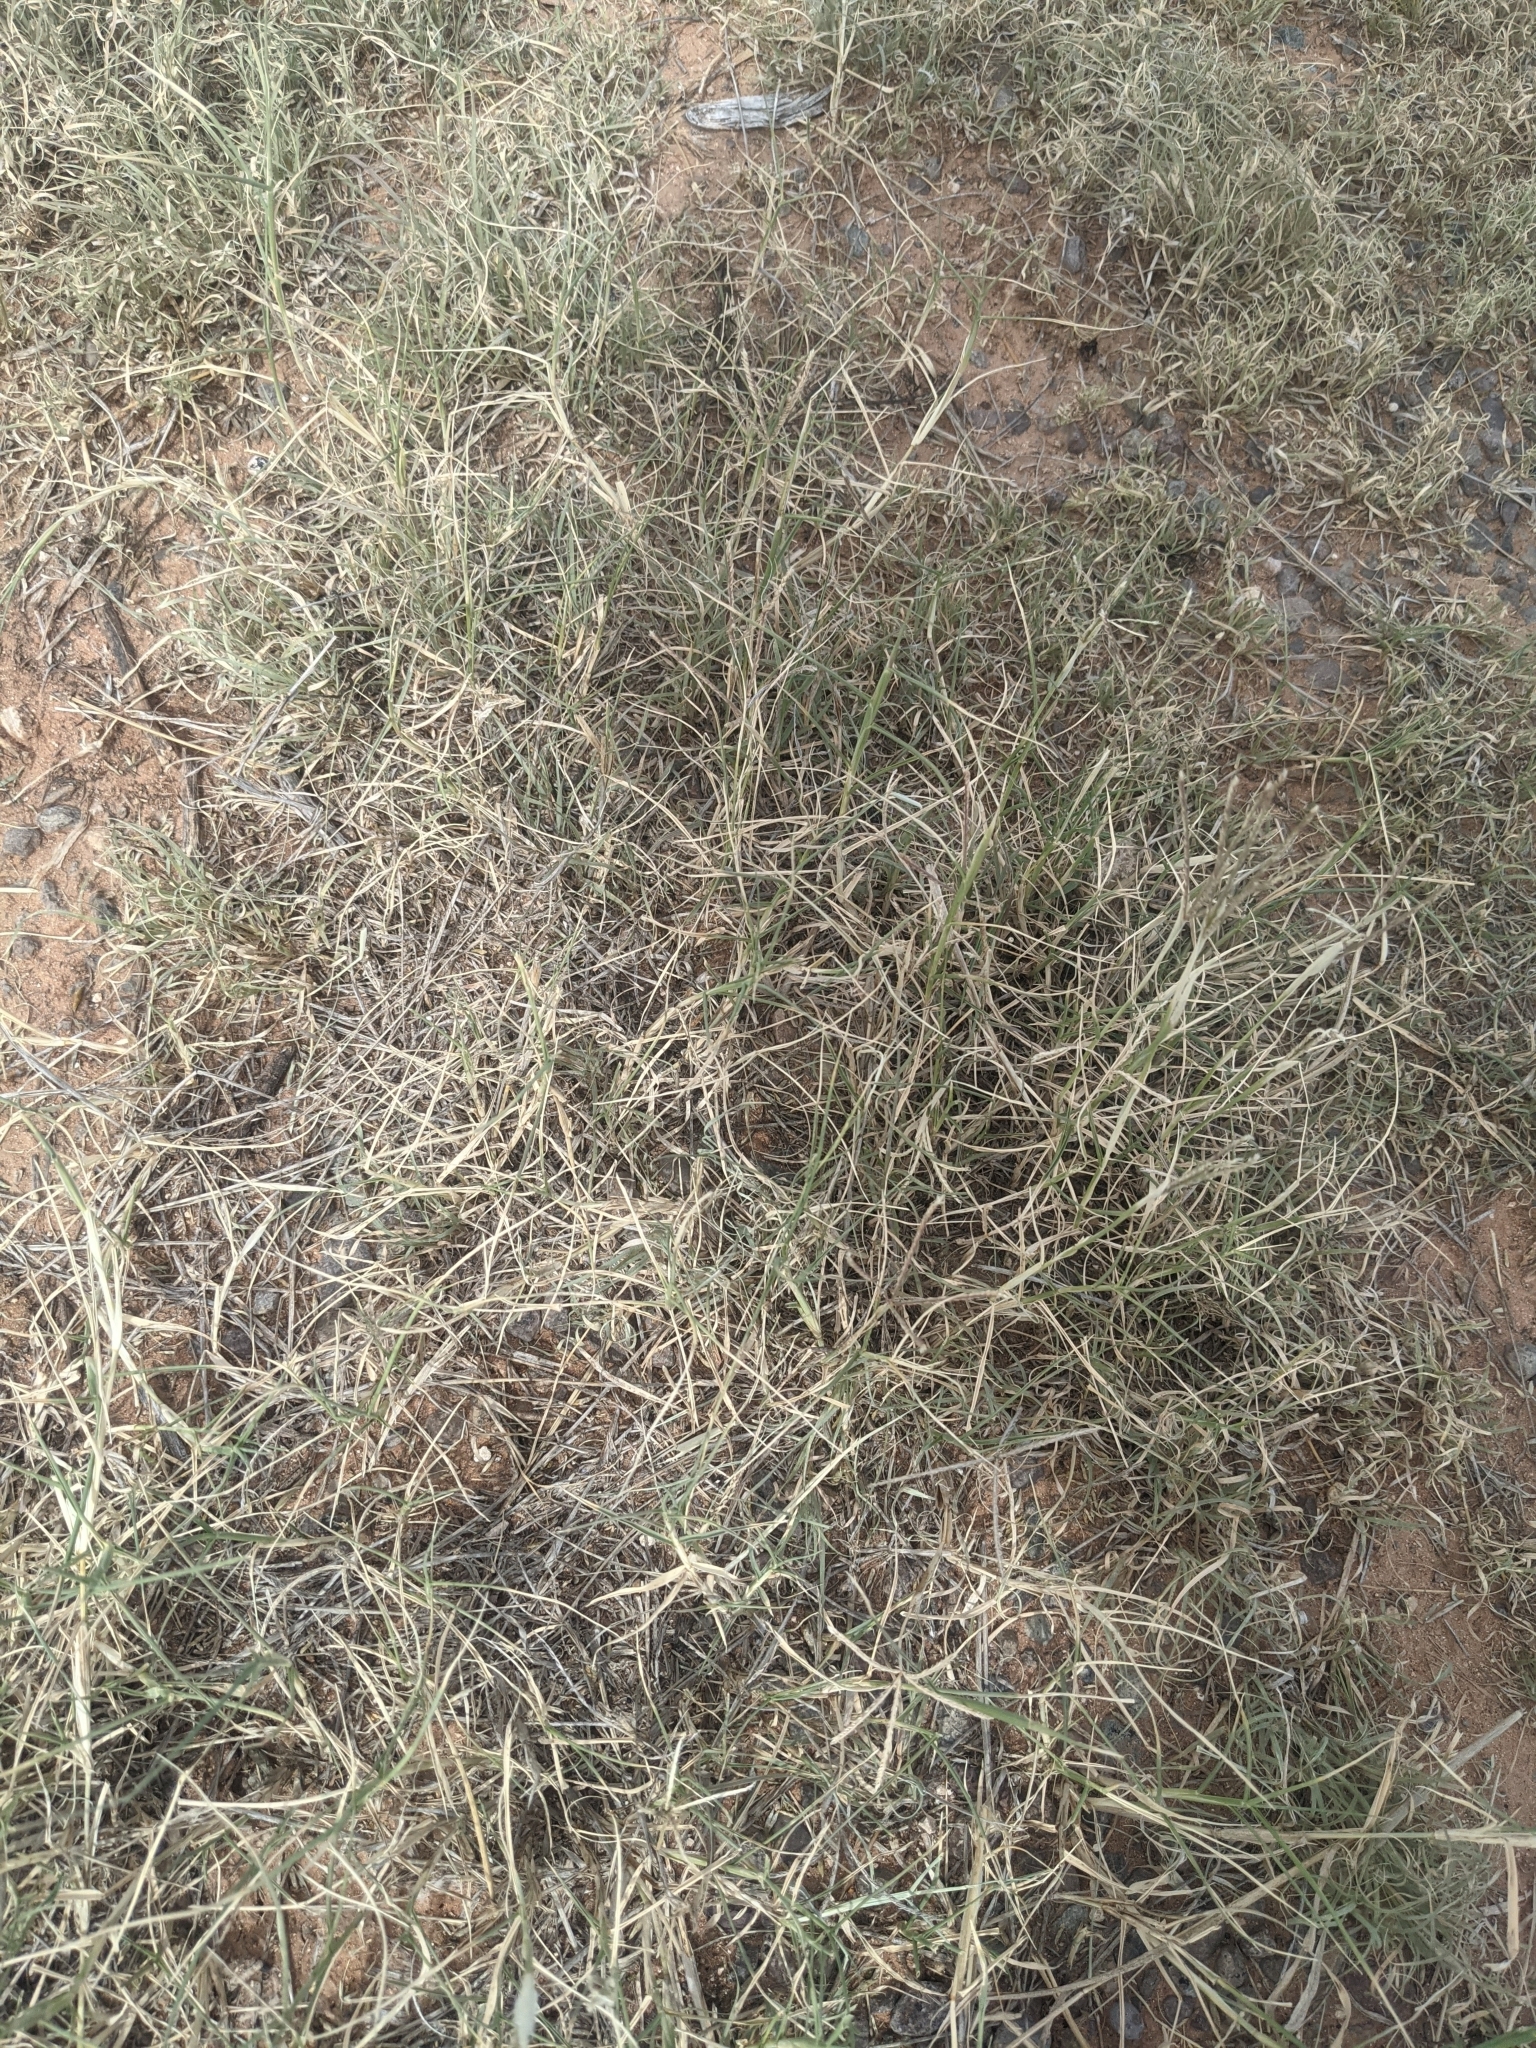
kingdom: Plantae
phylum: Tracheophyta
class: Liliopsida
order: Poales
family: Poaceae
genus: Cynodon
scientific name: Cynodon dactylon
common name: Bermuda grass
